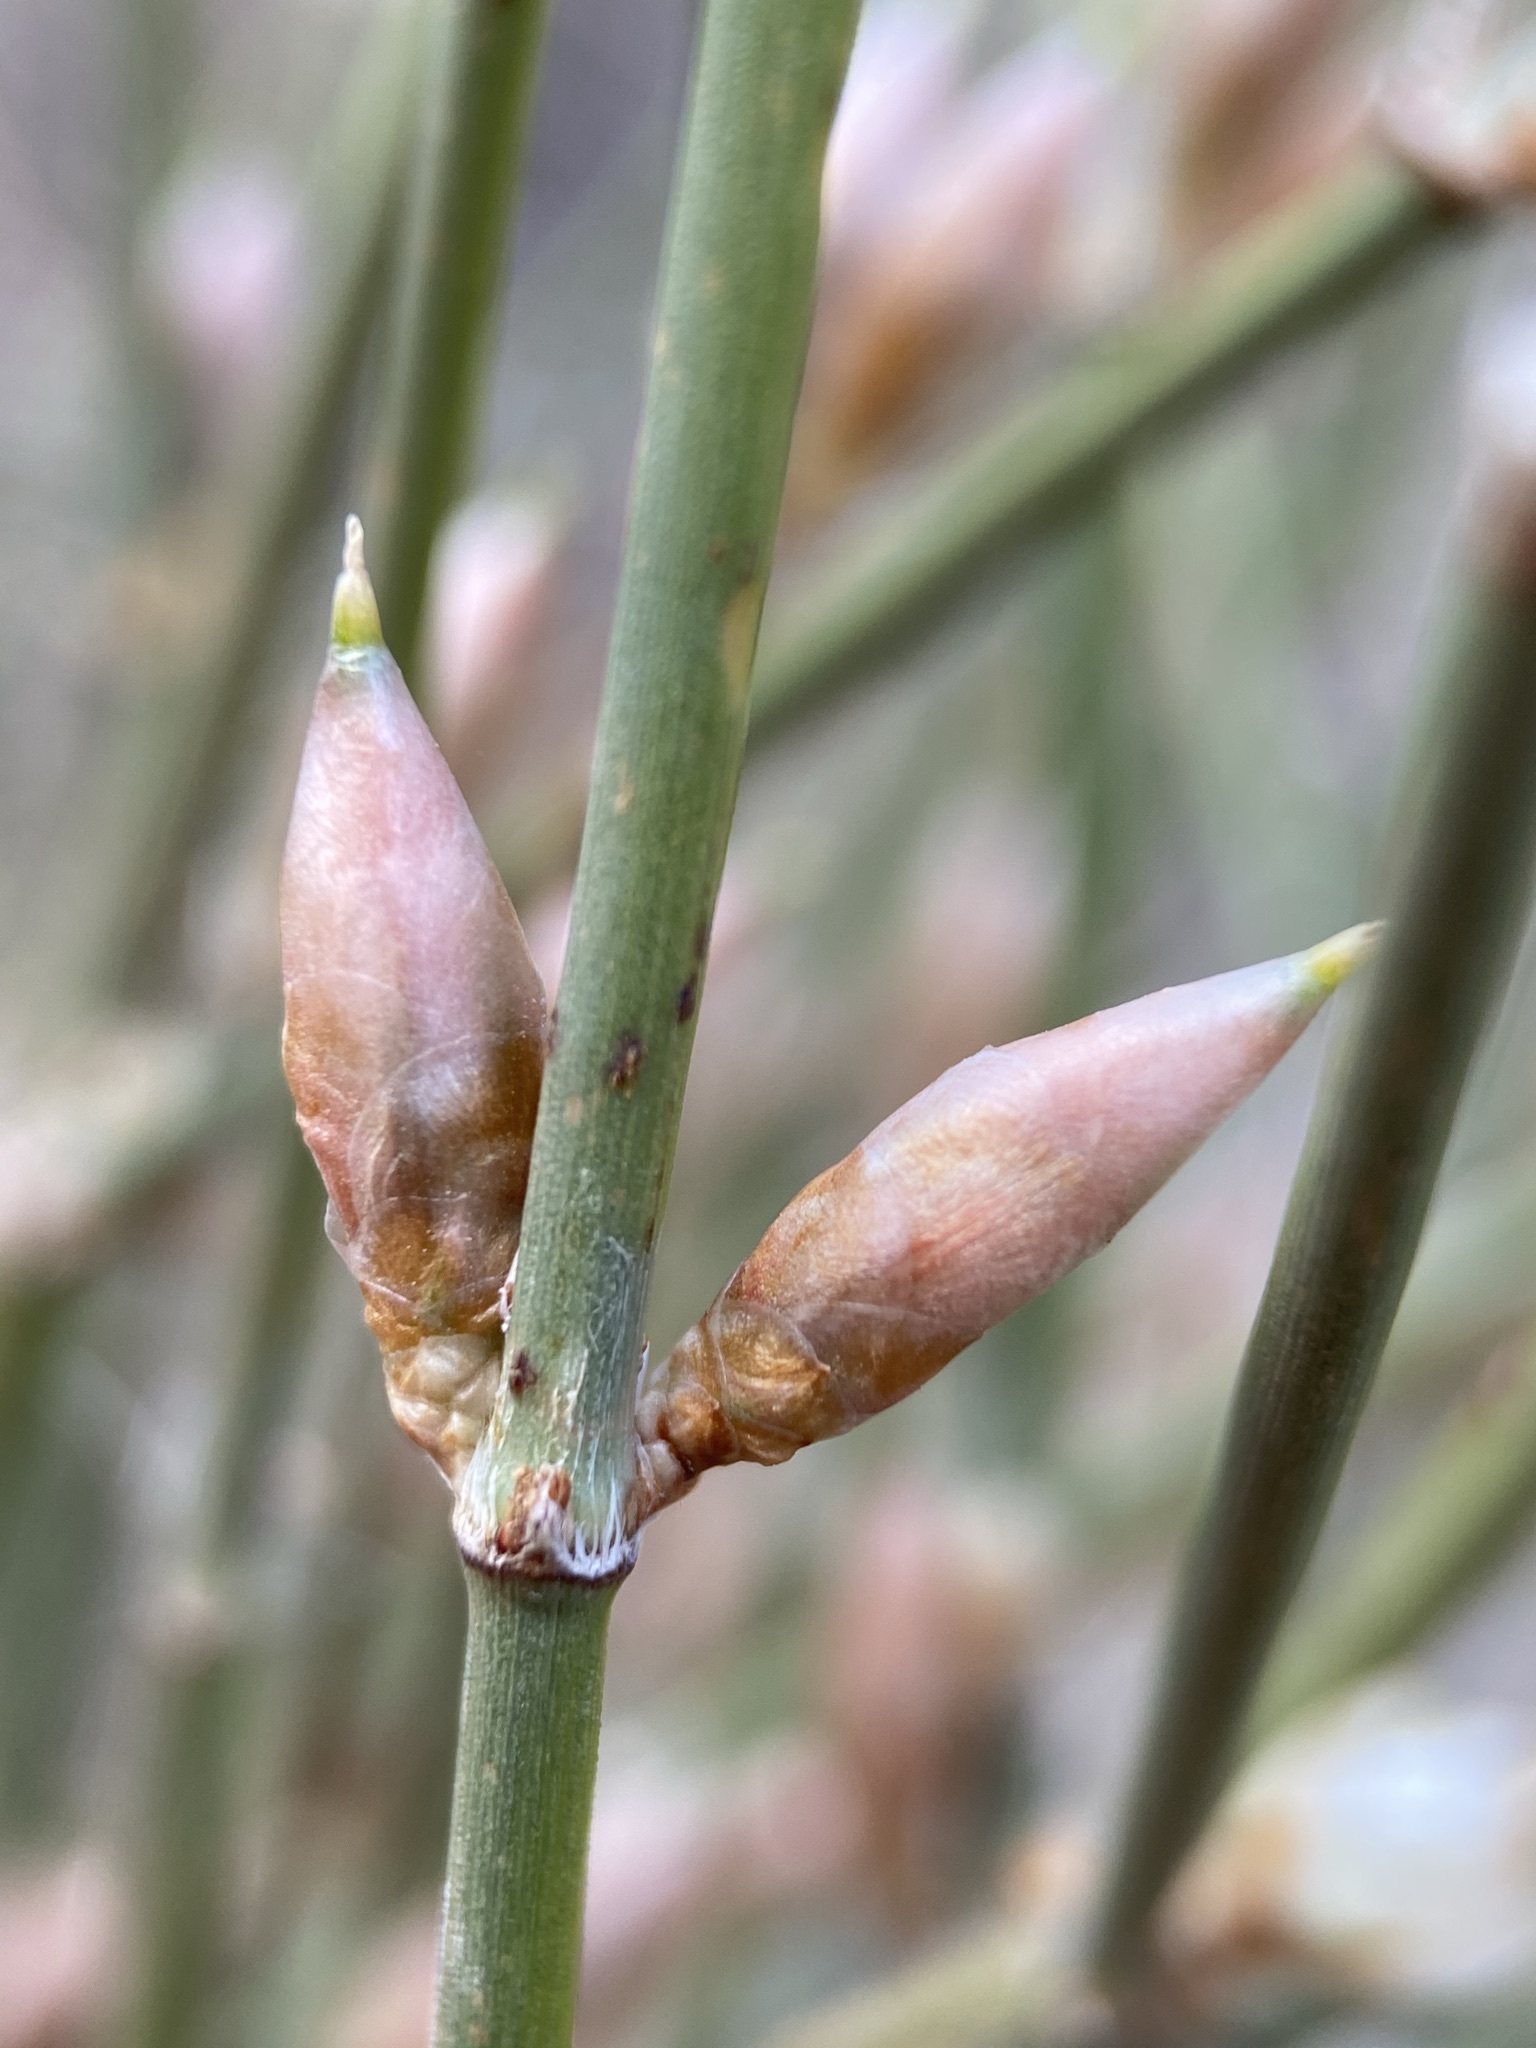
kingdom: Plantae
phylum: Tracheophyta
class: Gnetopsida
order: Ephedrales
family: Ephedraceae
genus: Ephedra
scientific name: Ephedra trifurca
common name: Mexican-tea
